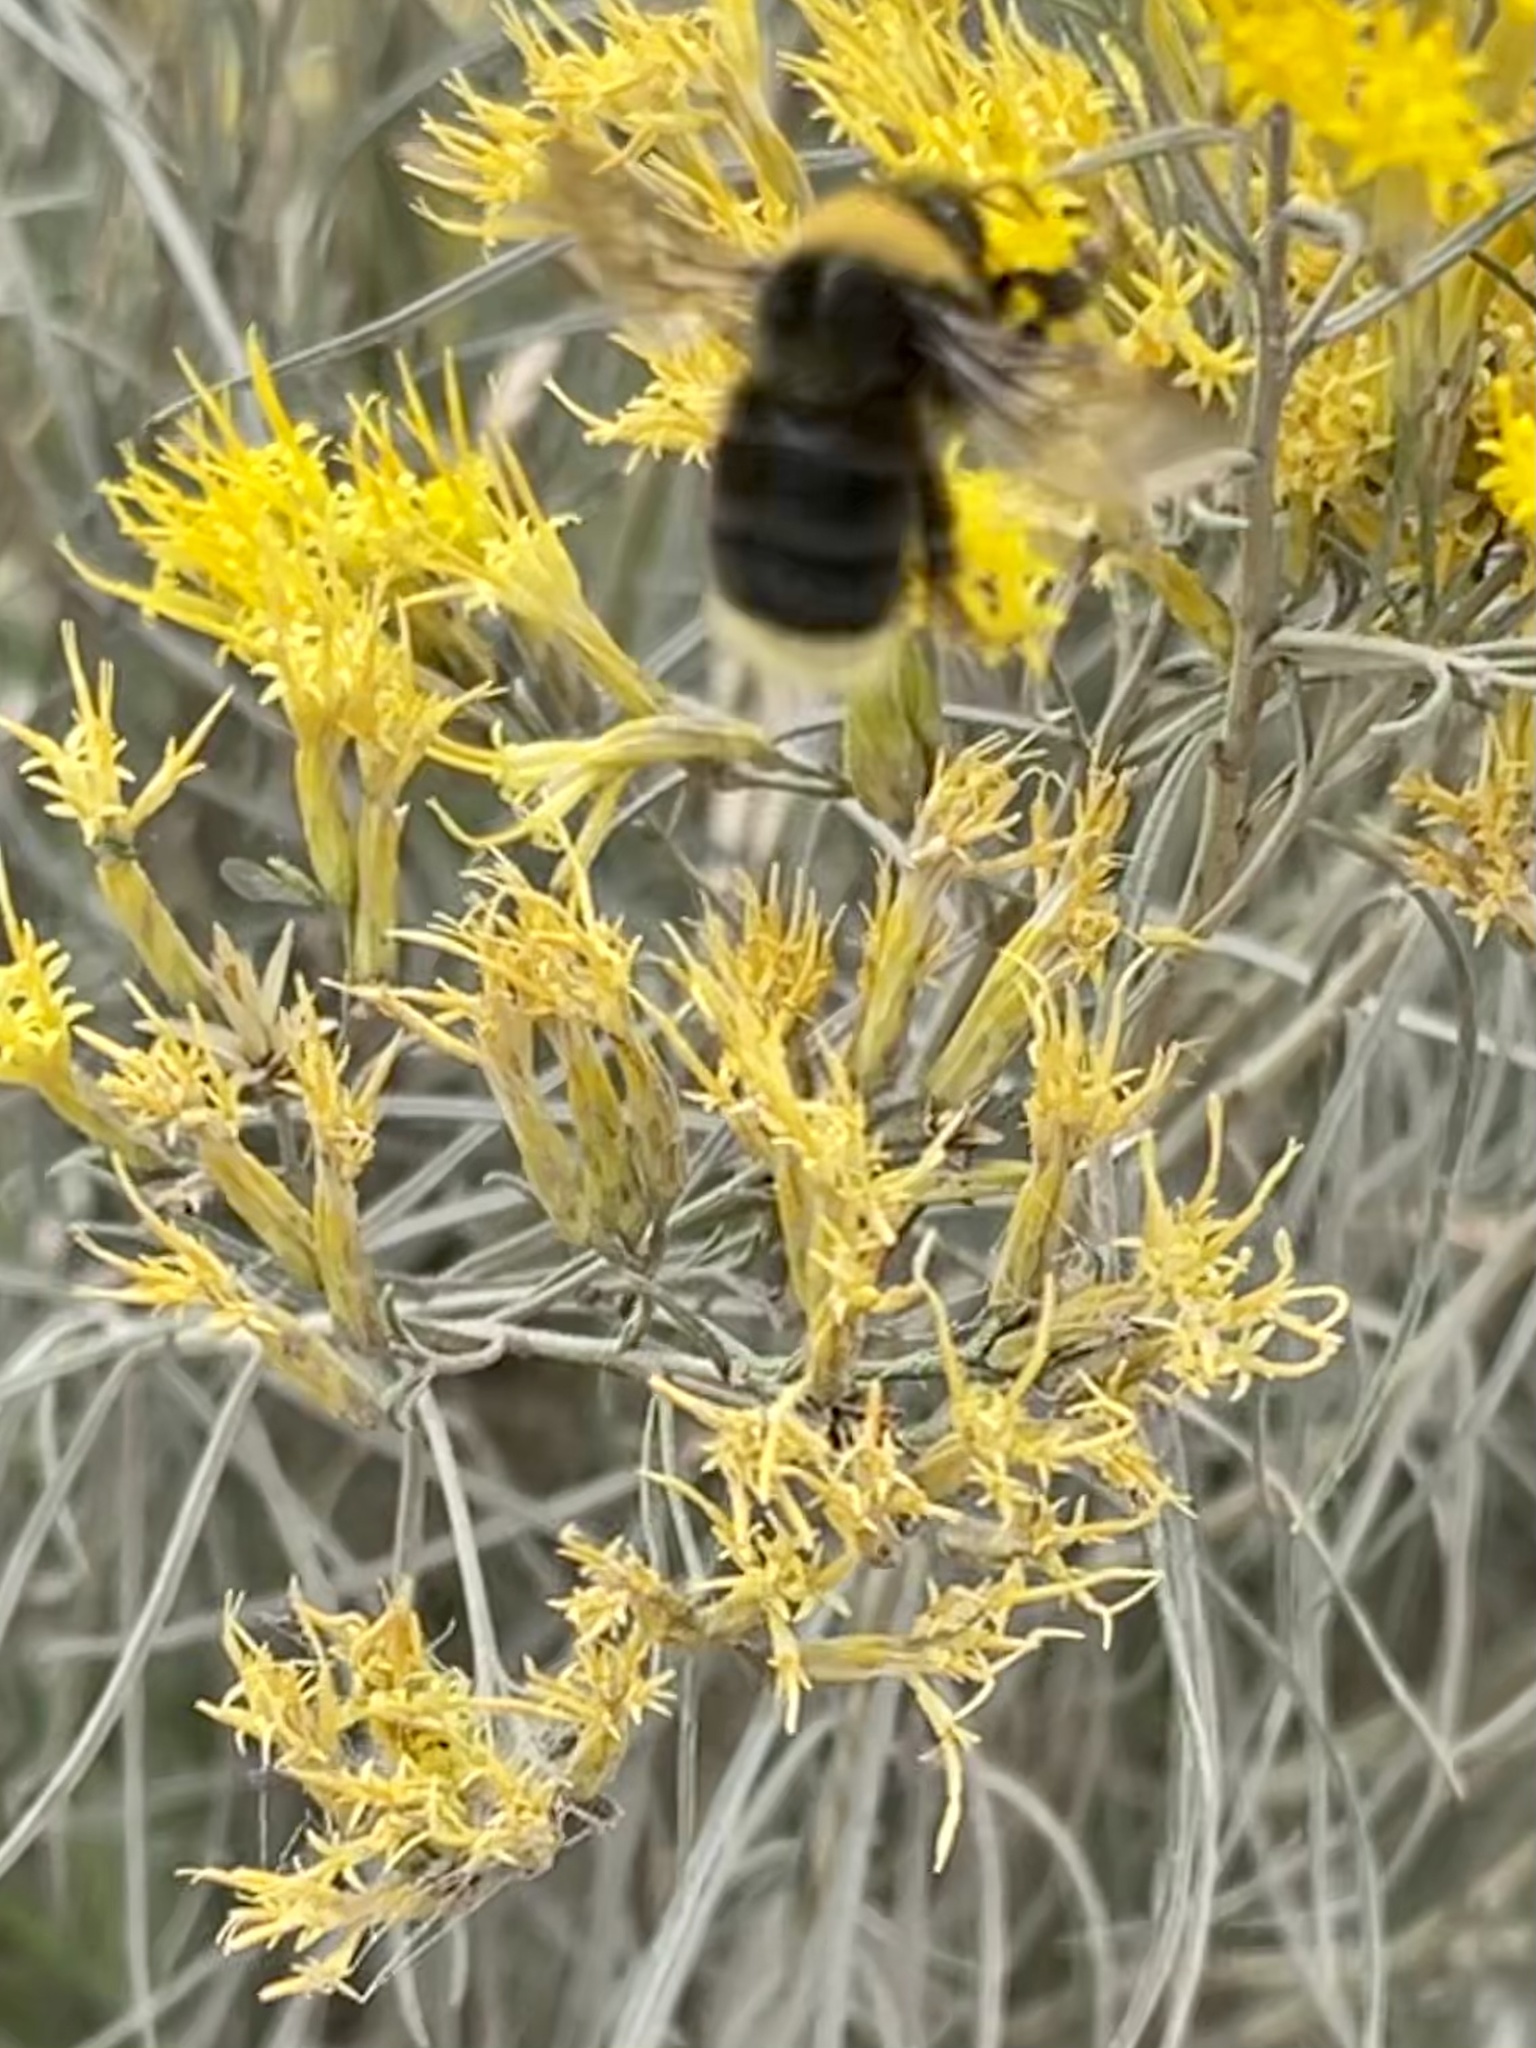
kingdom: Animalia
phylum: Arthropoda
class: Insecta
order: Hymenoptera
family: Apidae
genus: Bombus
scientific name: Bombus occidentalis
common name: Western bumble bee
